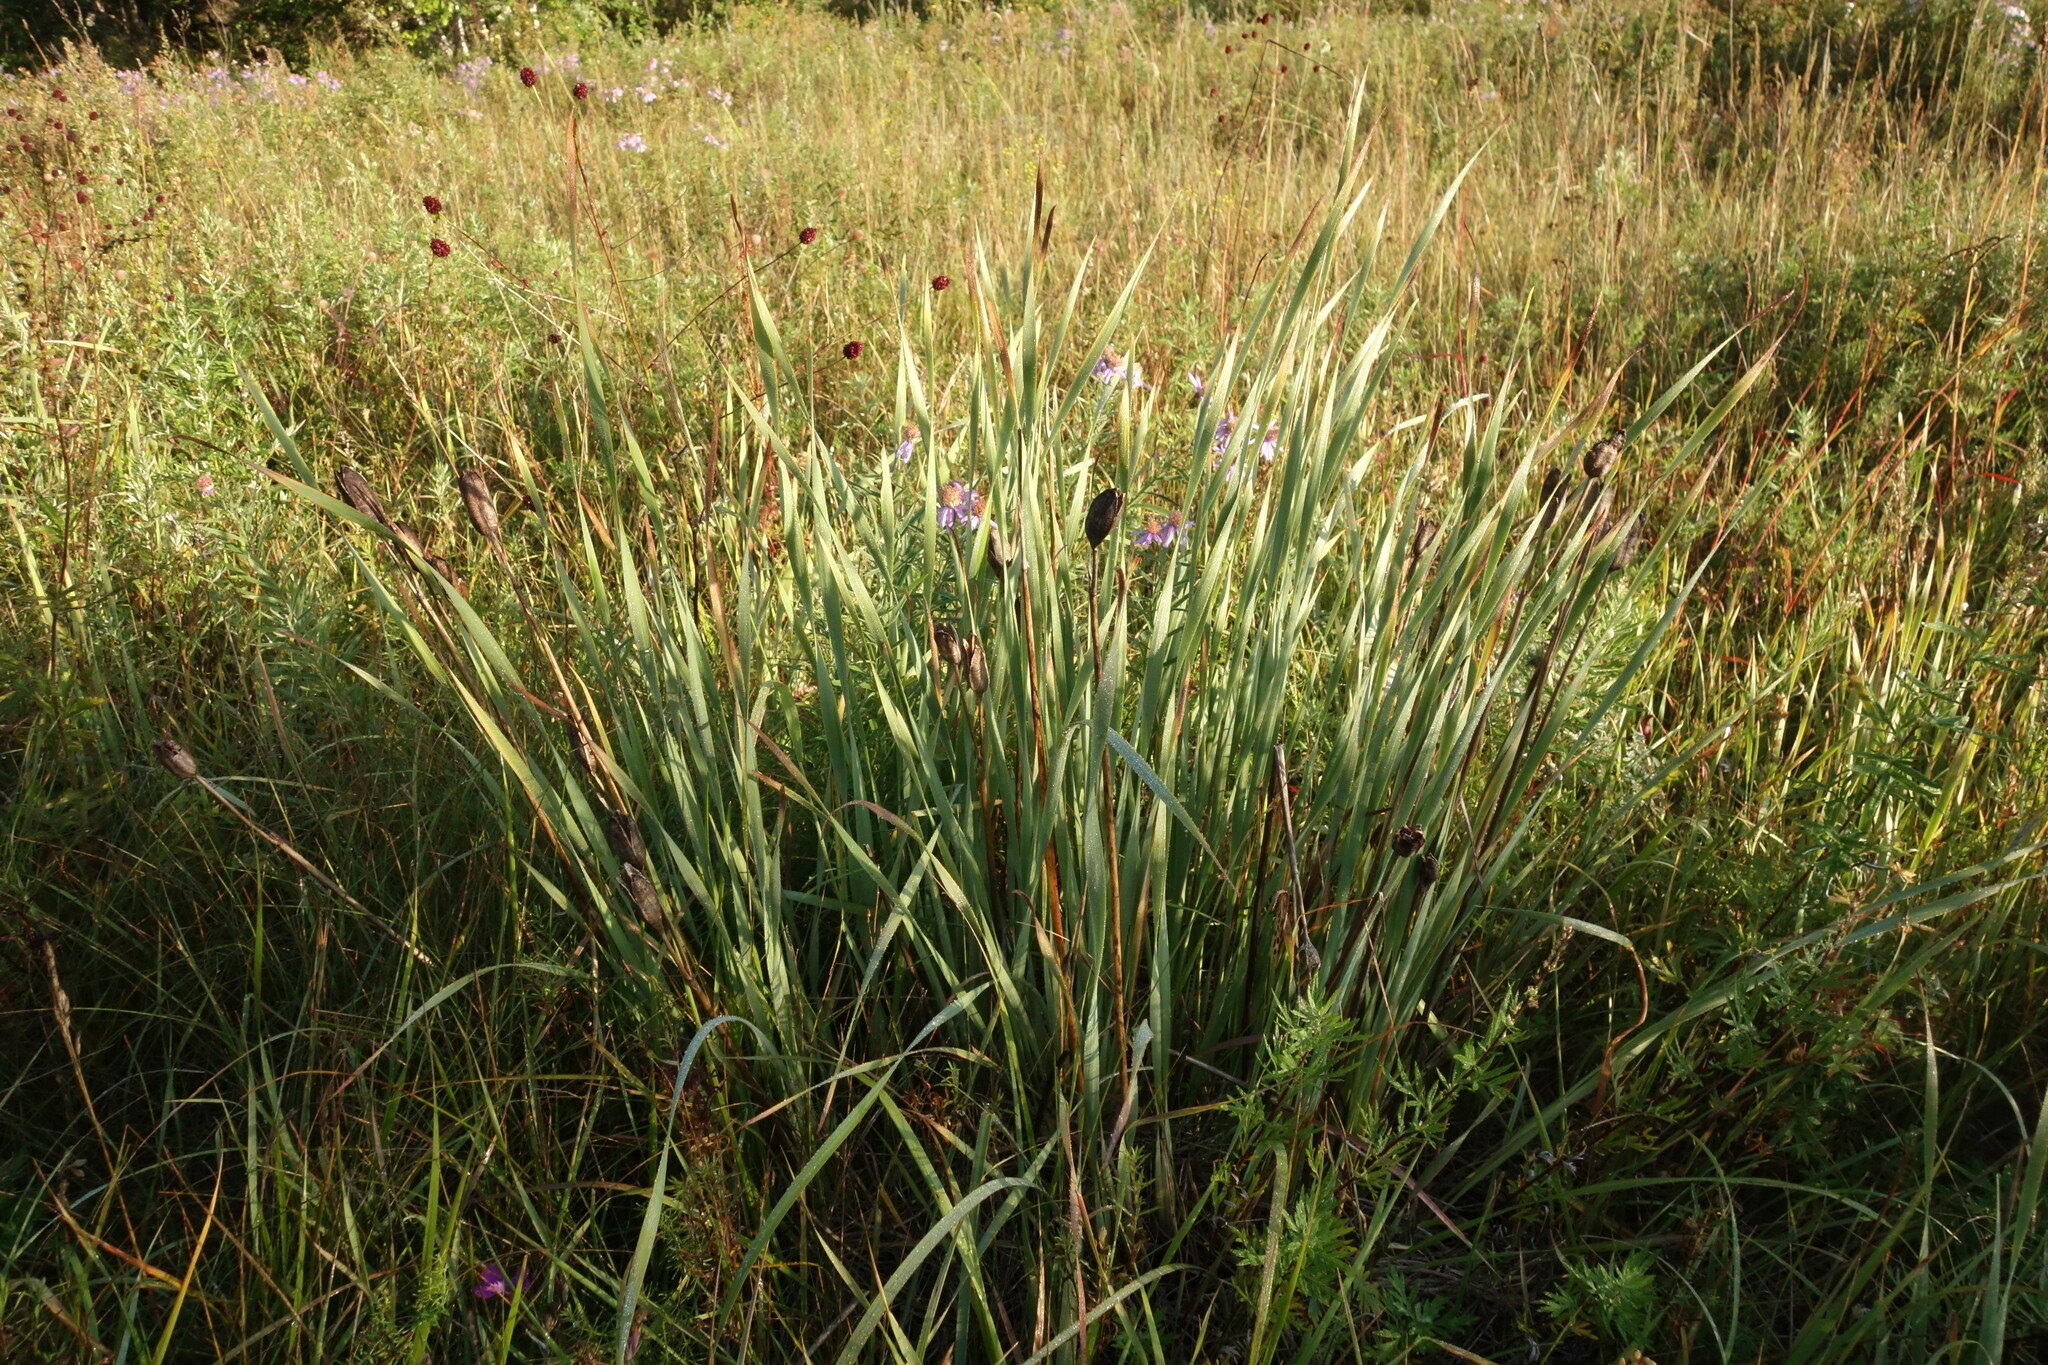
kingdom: Plantae
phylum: Tracheophyta
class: Liliopsida
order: Asparagales
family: Iridaceae
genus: Iris
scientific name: Iris sanguinea
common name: Blood iris
